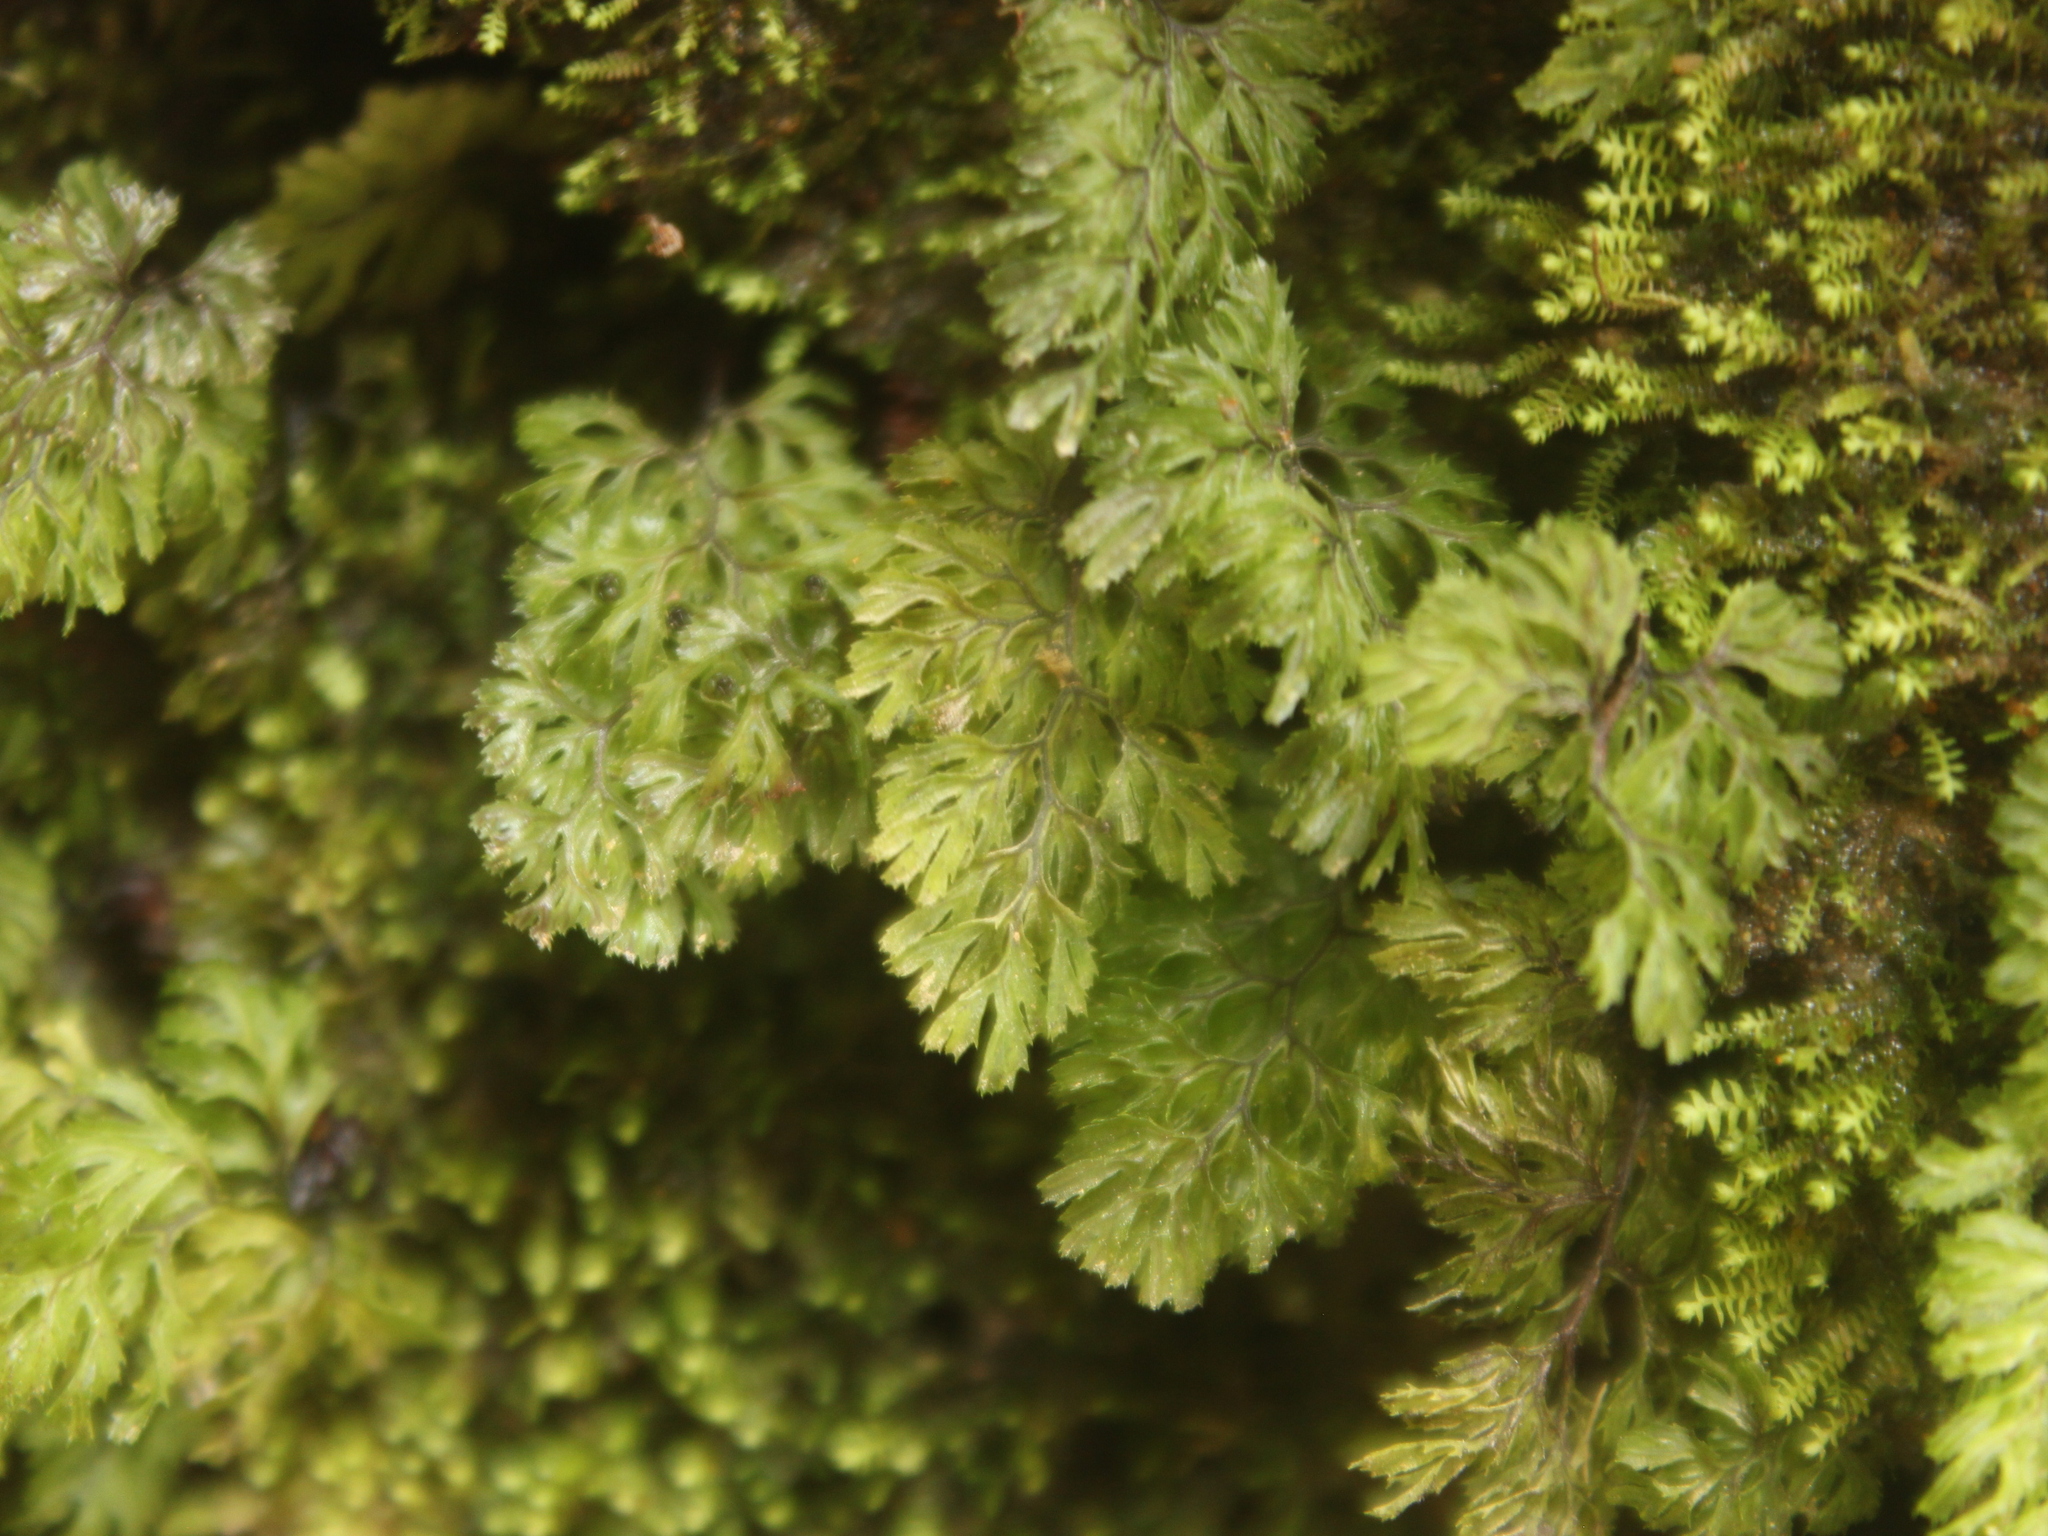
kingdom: Plantae
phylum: Tracheophyta
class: Polypodiopsida
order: Hymenophyllales
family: Hymenophyllaceae
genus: Hymenophyllum
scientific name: Hymenophyllum multifidum
